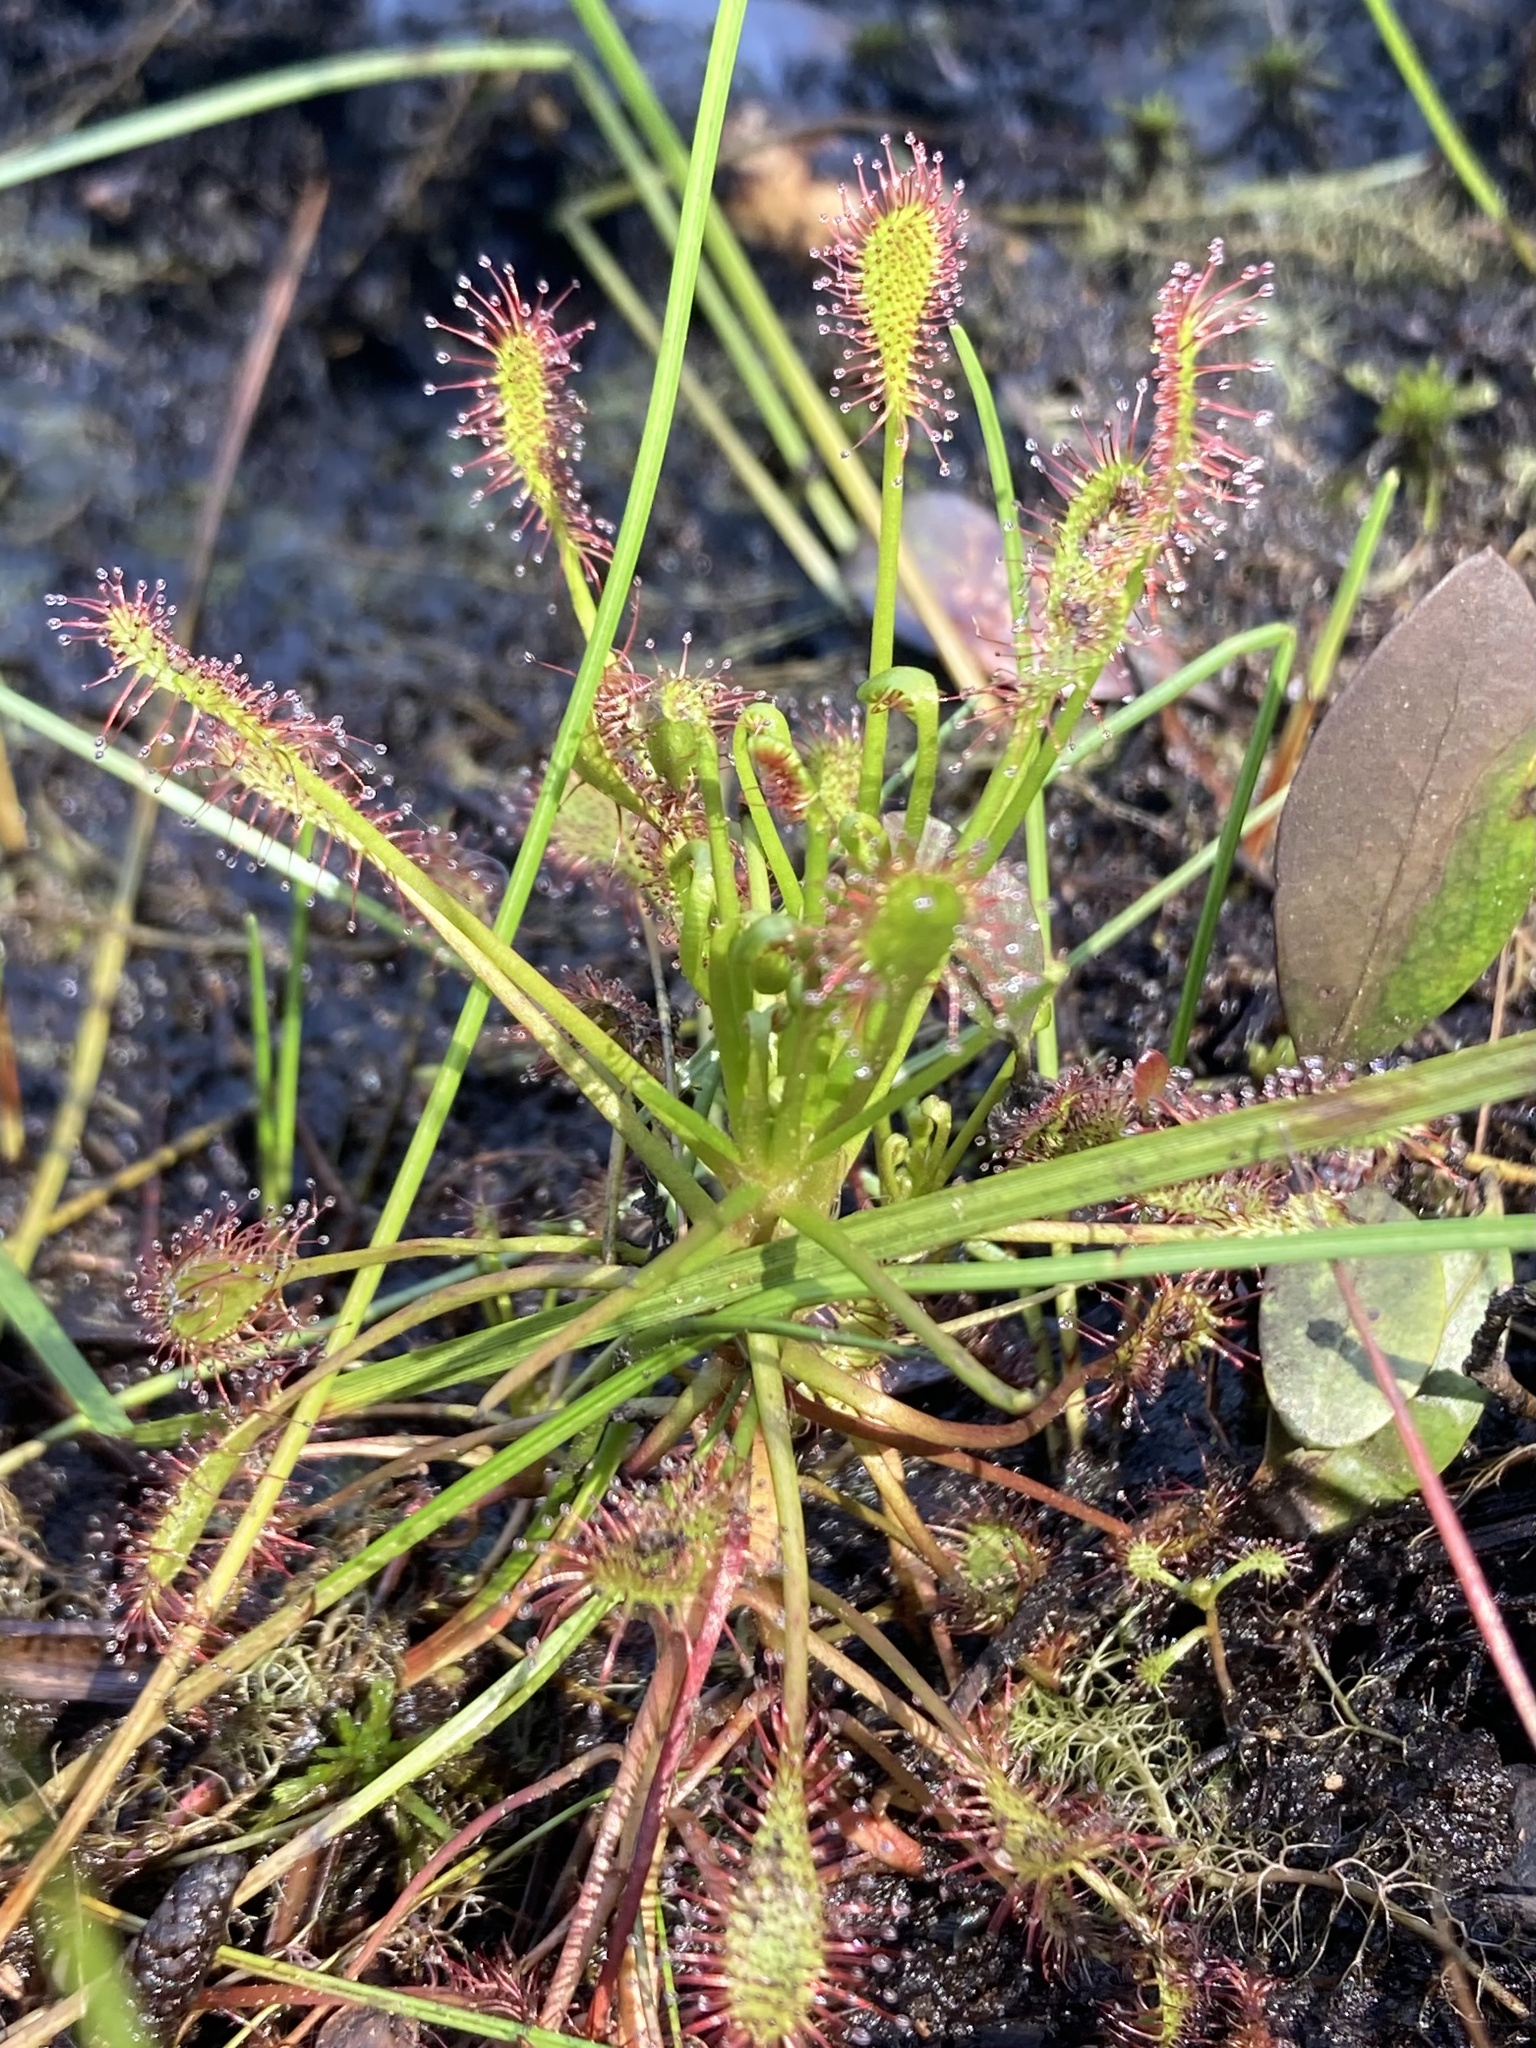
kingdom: Plantae
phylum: Tracheophyta
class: Magnoliopsida
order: Caryophyllales
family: Droseraceae
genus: Drosera
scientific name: Drosera intermedia
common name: Oblong-leaved sundew
